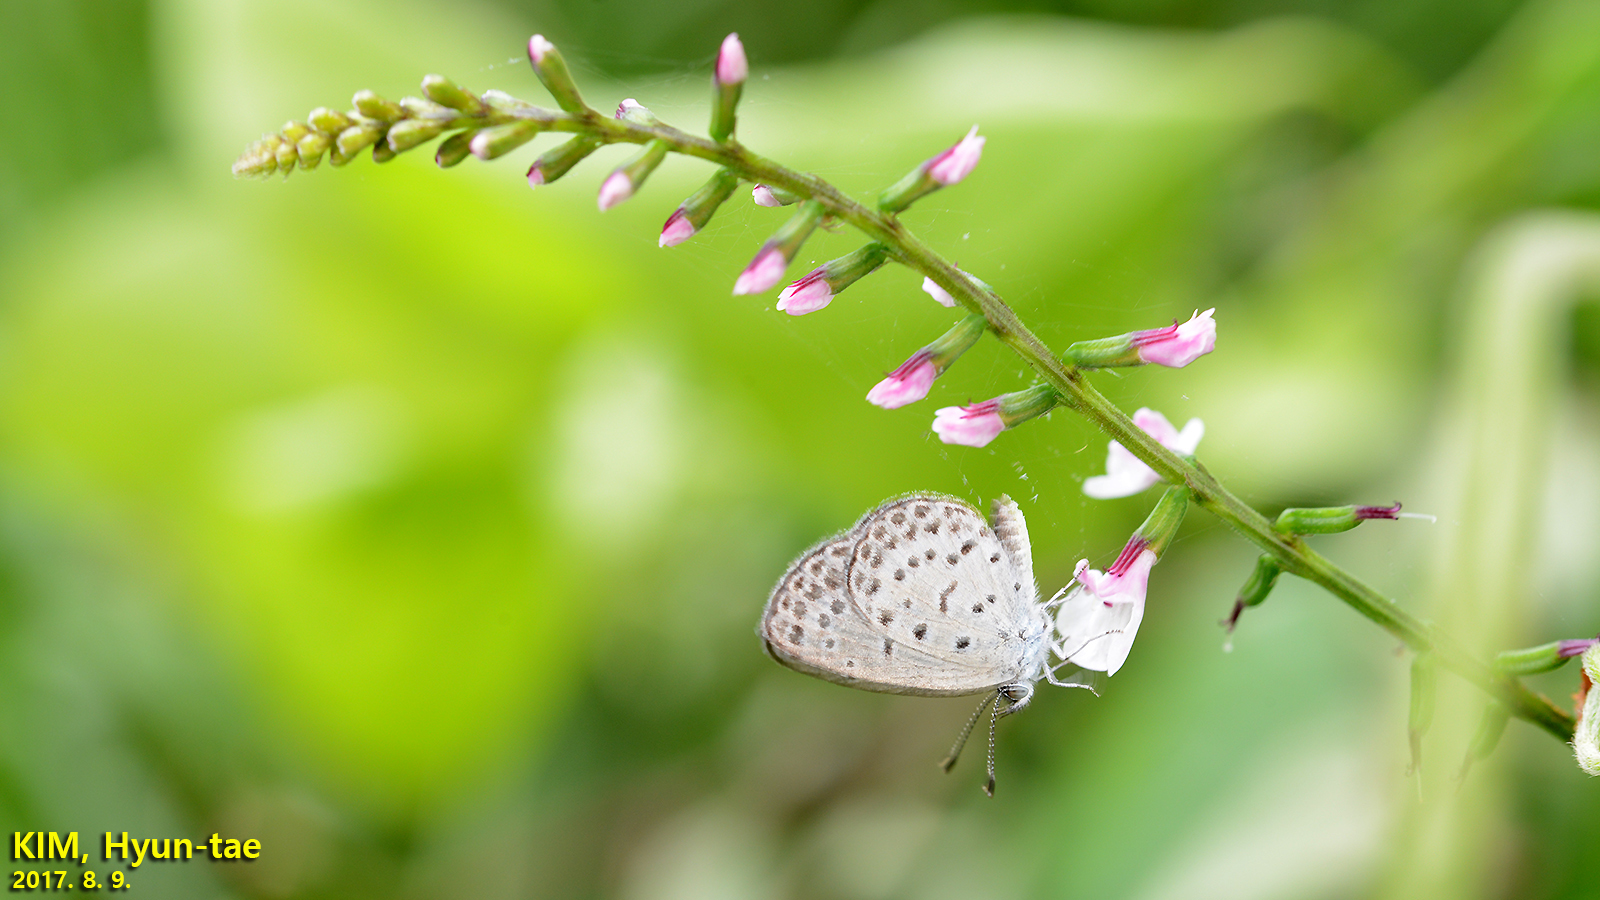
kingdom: Animalia
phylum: Arthropoda
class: Insecta
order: Lepidoptera
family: Lycaenidae
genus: Pseudozizeeria
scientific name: Pseudozizeeria maha
